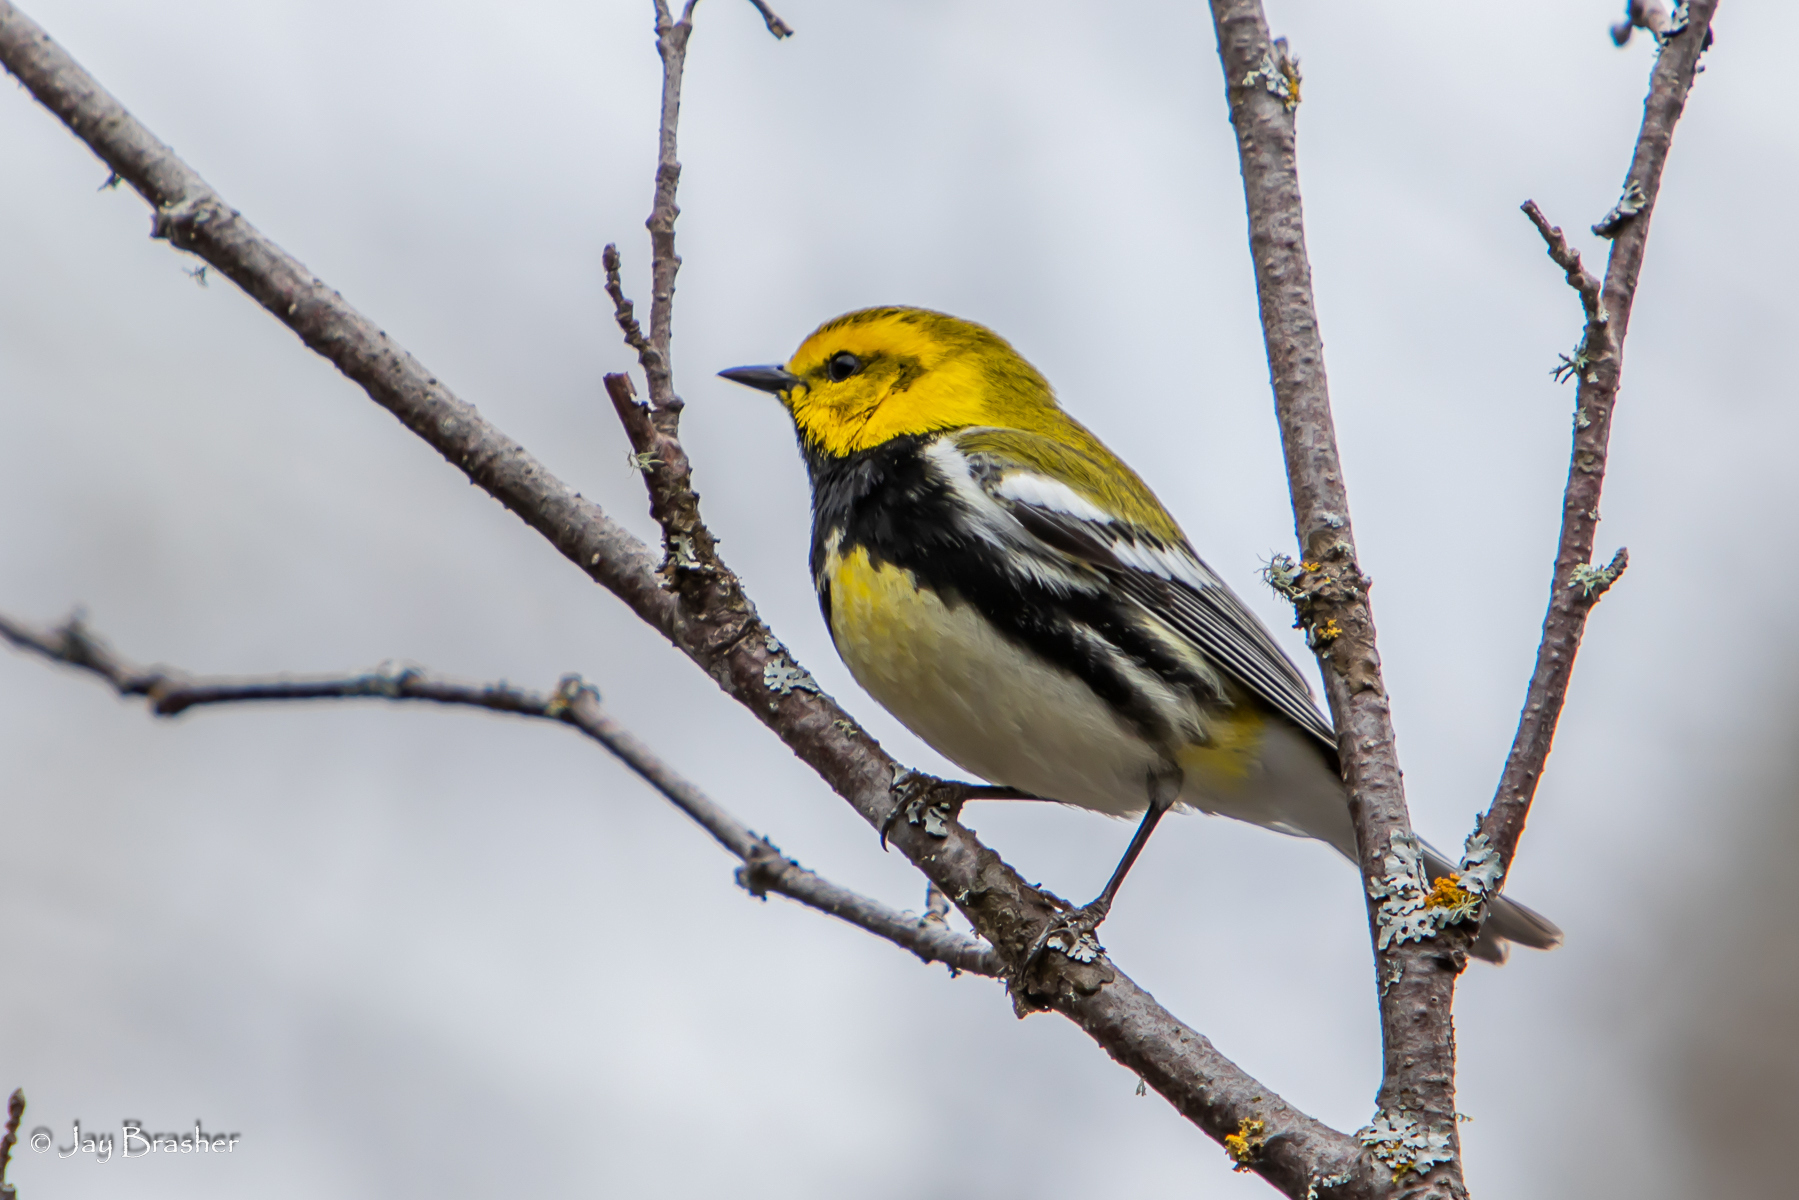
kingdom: Animalia
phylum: Chordata
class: Aves
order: Passeriformes
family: Parulidae
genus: Setophaga
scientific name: Setophaga virens
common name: Black-throated green warbler
